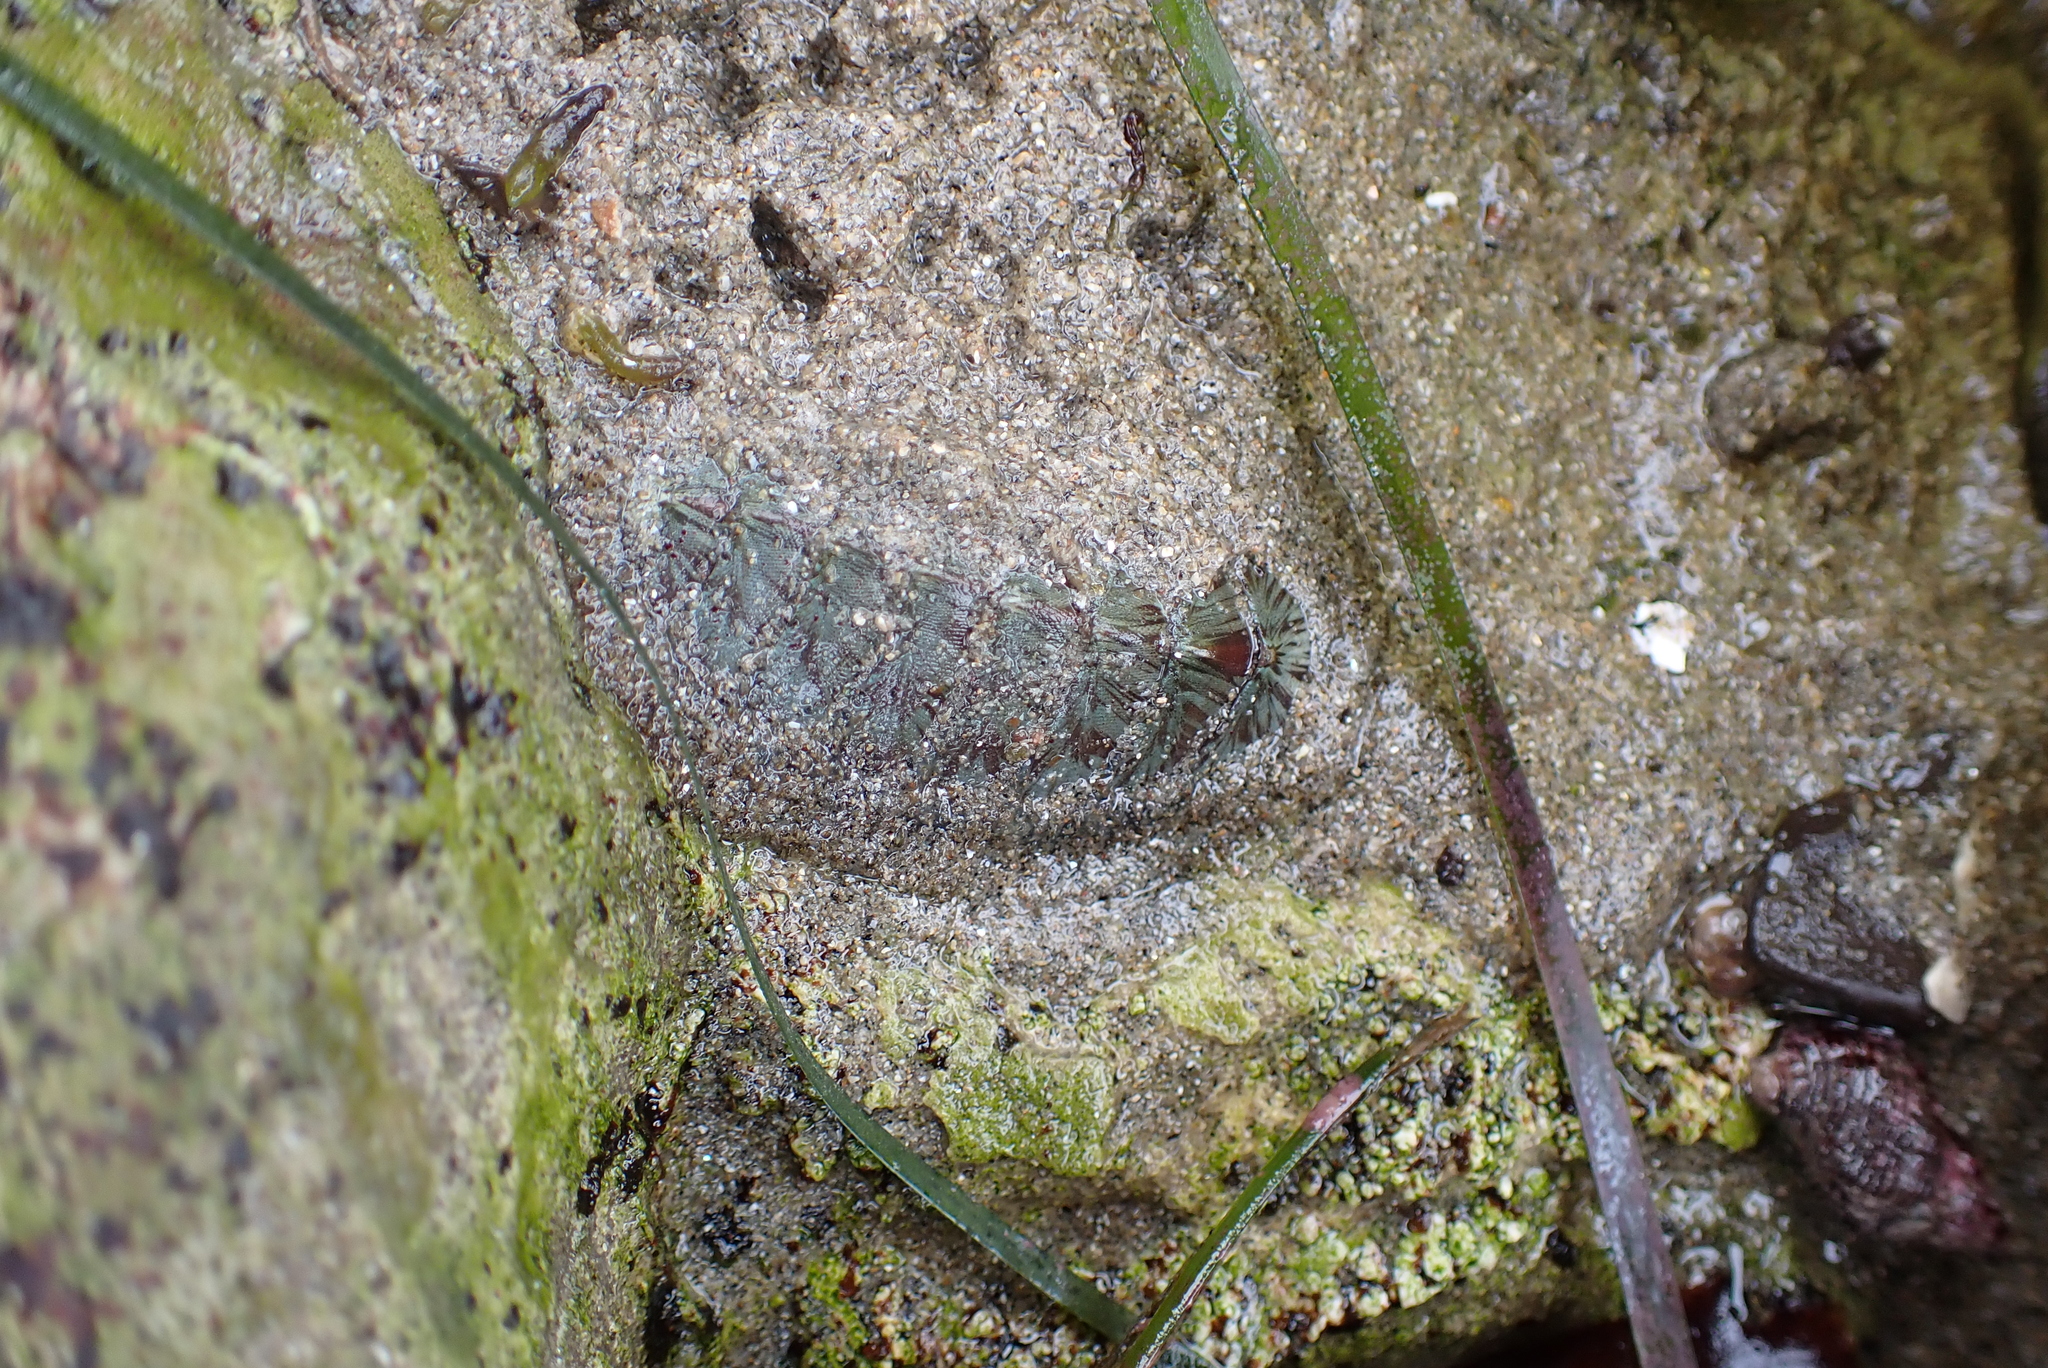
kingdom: Animalia
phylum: Mollusca
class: Polyplacophora
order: Chitonida
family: Mopaliidae
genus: Mopalia
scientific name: Mopalia lignosa
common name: Woody chiton
